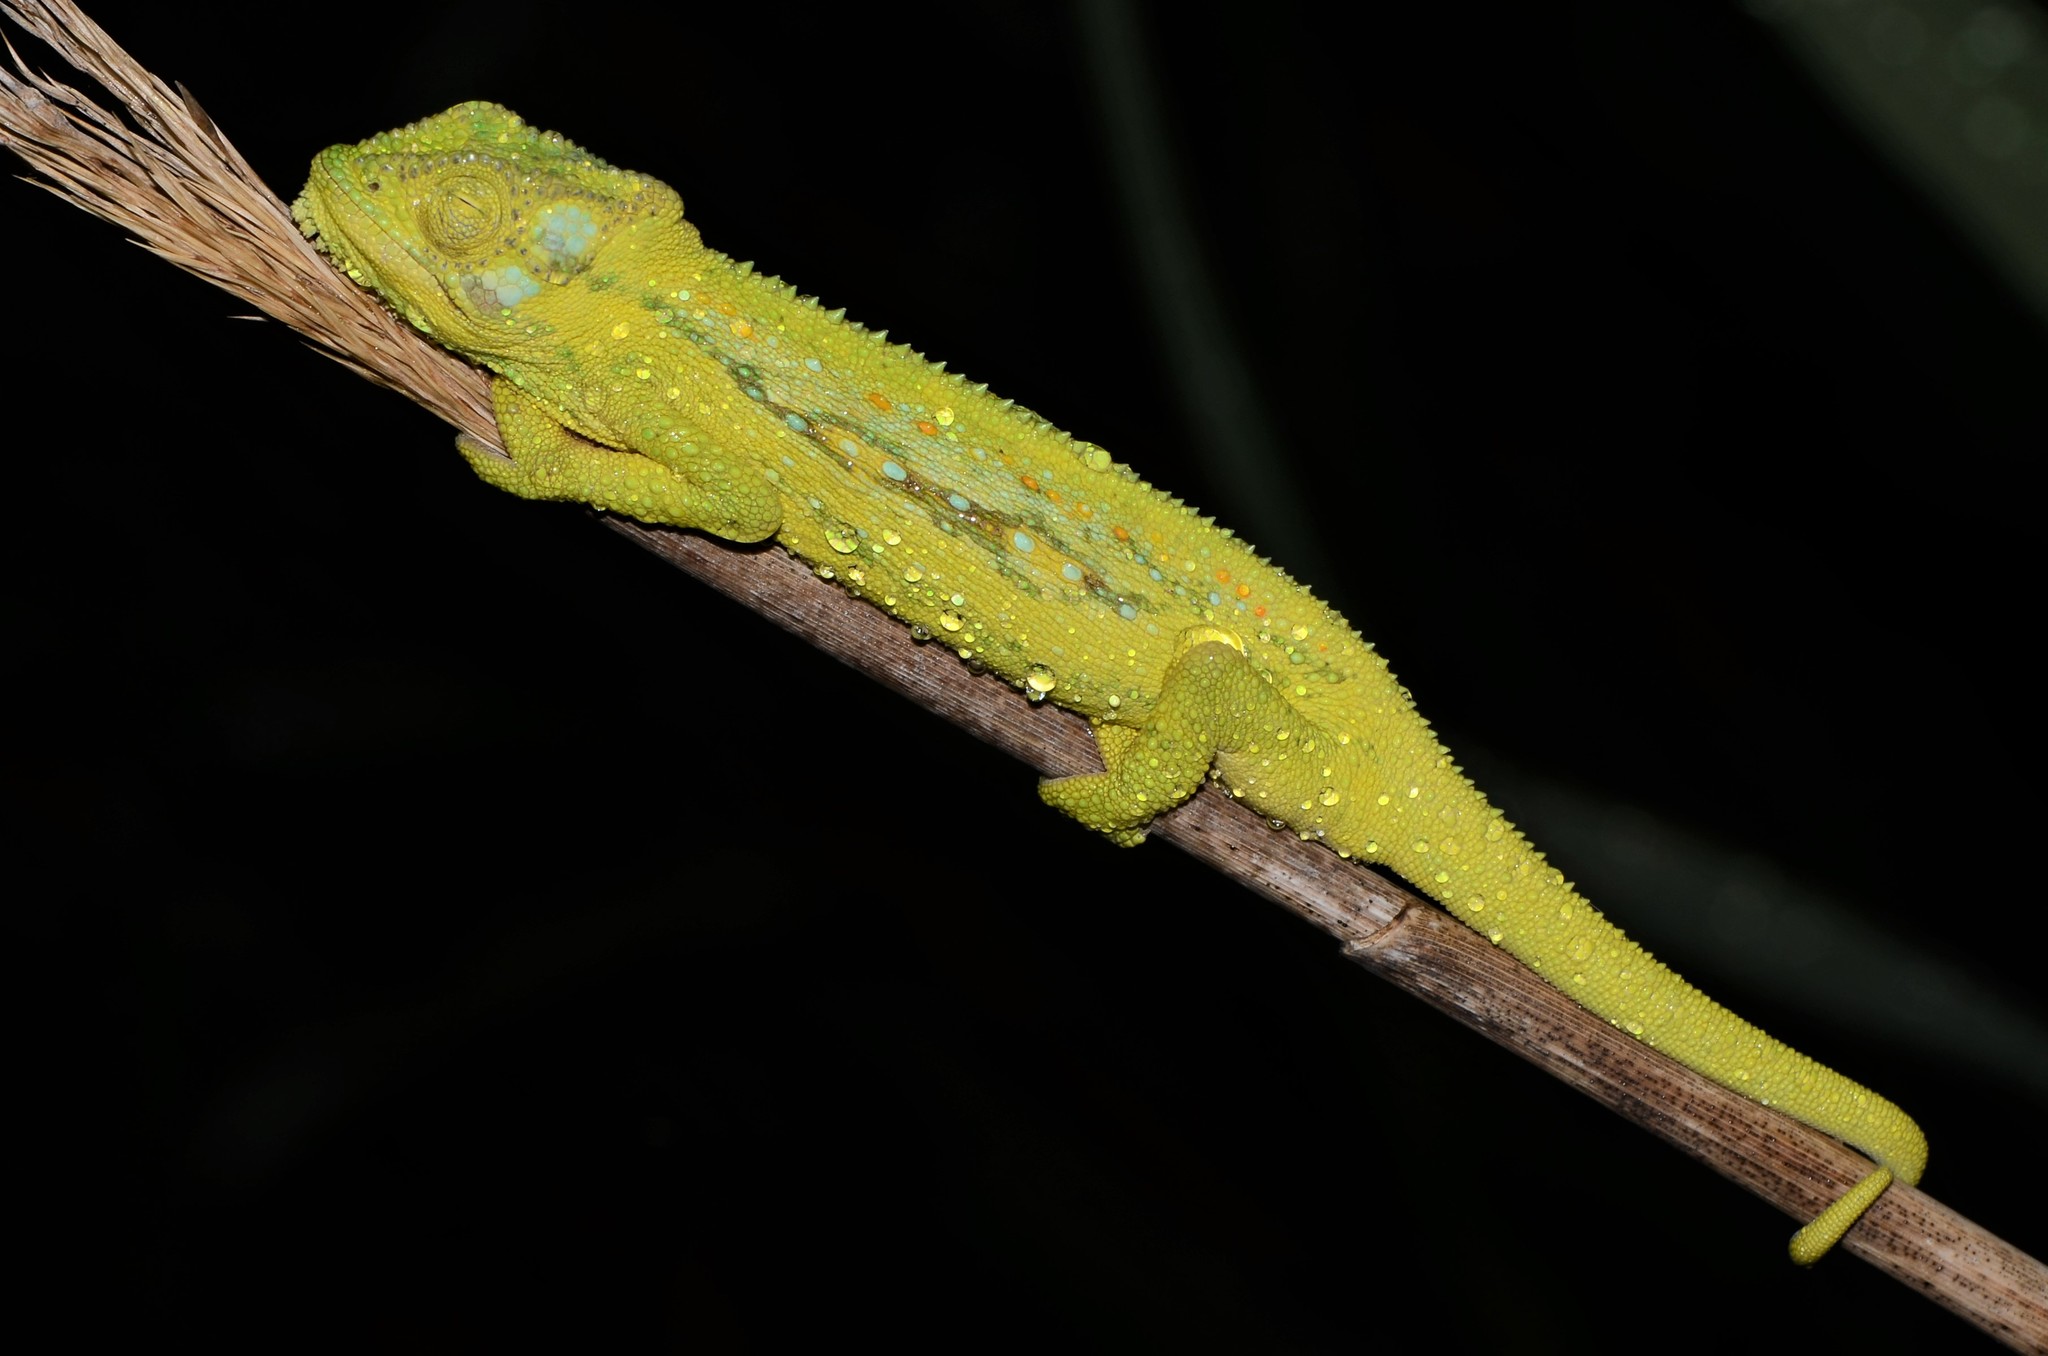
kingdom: Animalia
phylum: Chordata
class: Squamata
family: Chamaeleonidae
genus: Bradypodion
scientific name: Bradypodion pumilum
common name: Cape dwarf chameleon
